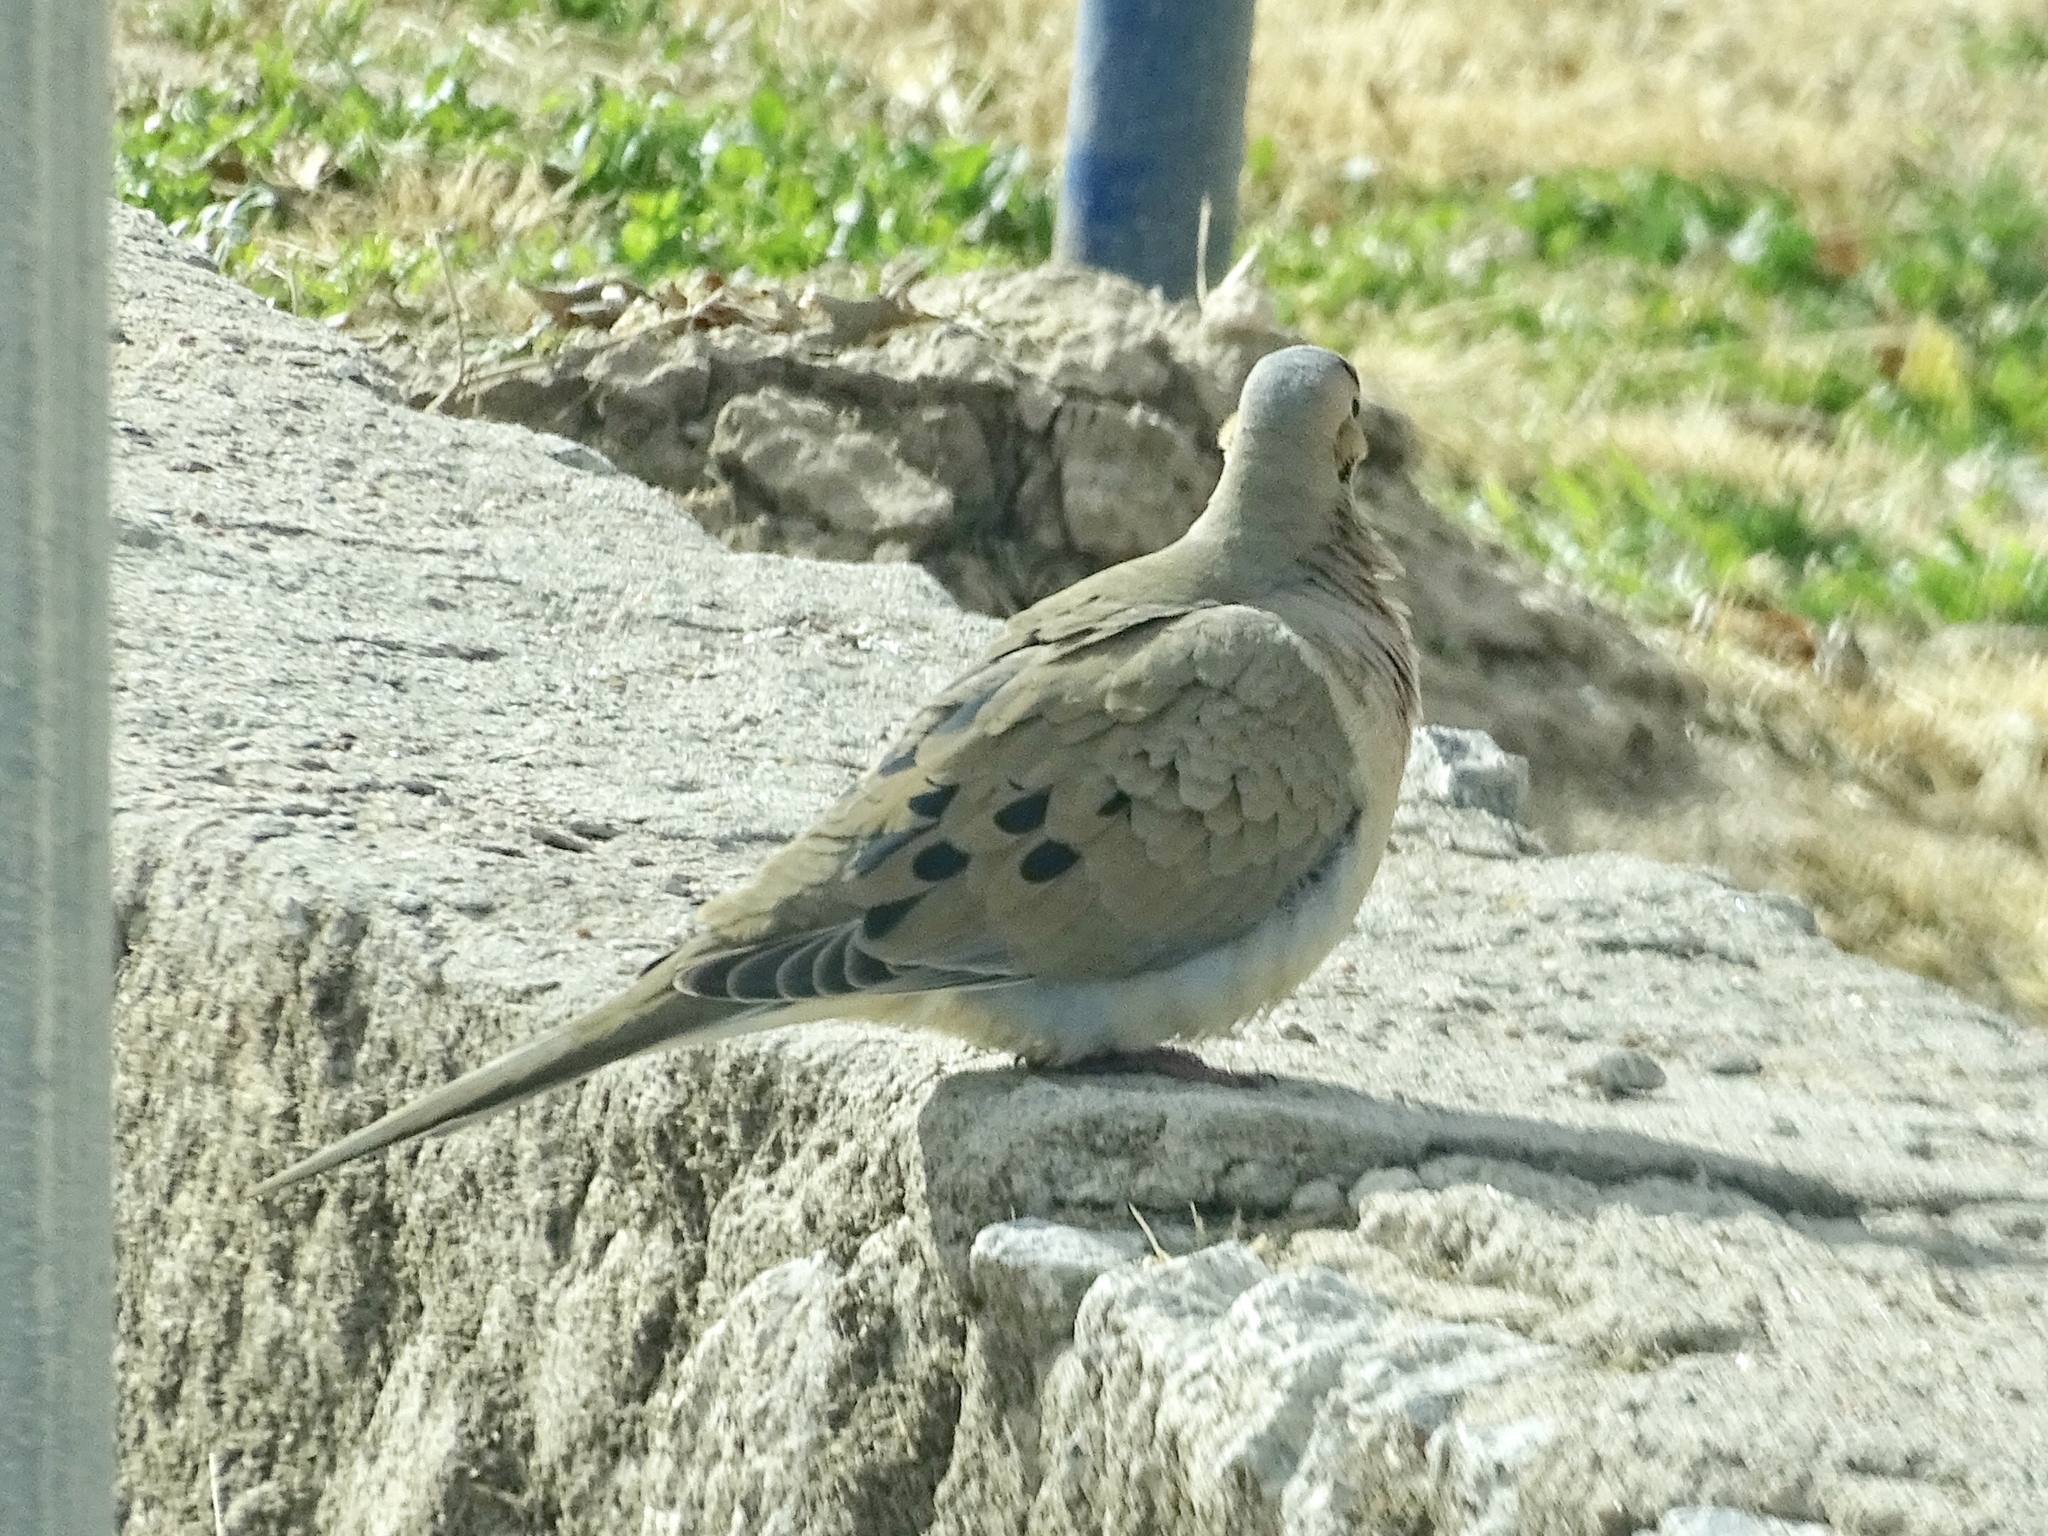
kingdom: Animalia
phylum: Chordata
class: Aves
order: Columbiformes
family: Columbidae
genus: Zenaida
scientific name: Zenaida macroura
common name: Mourning dove
